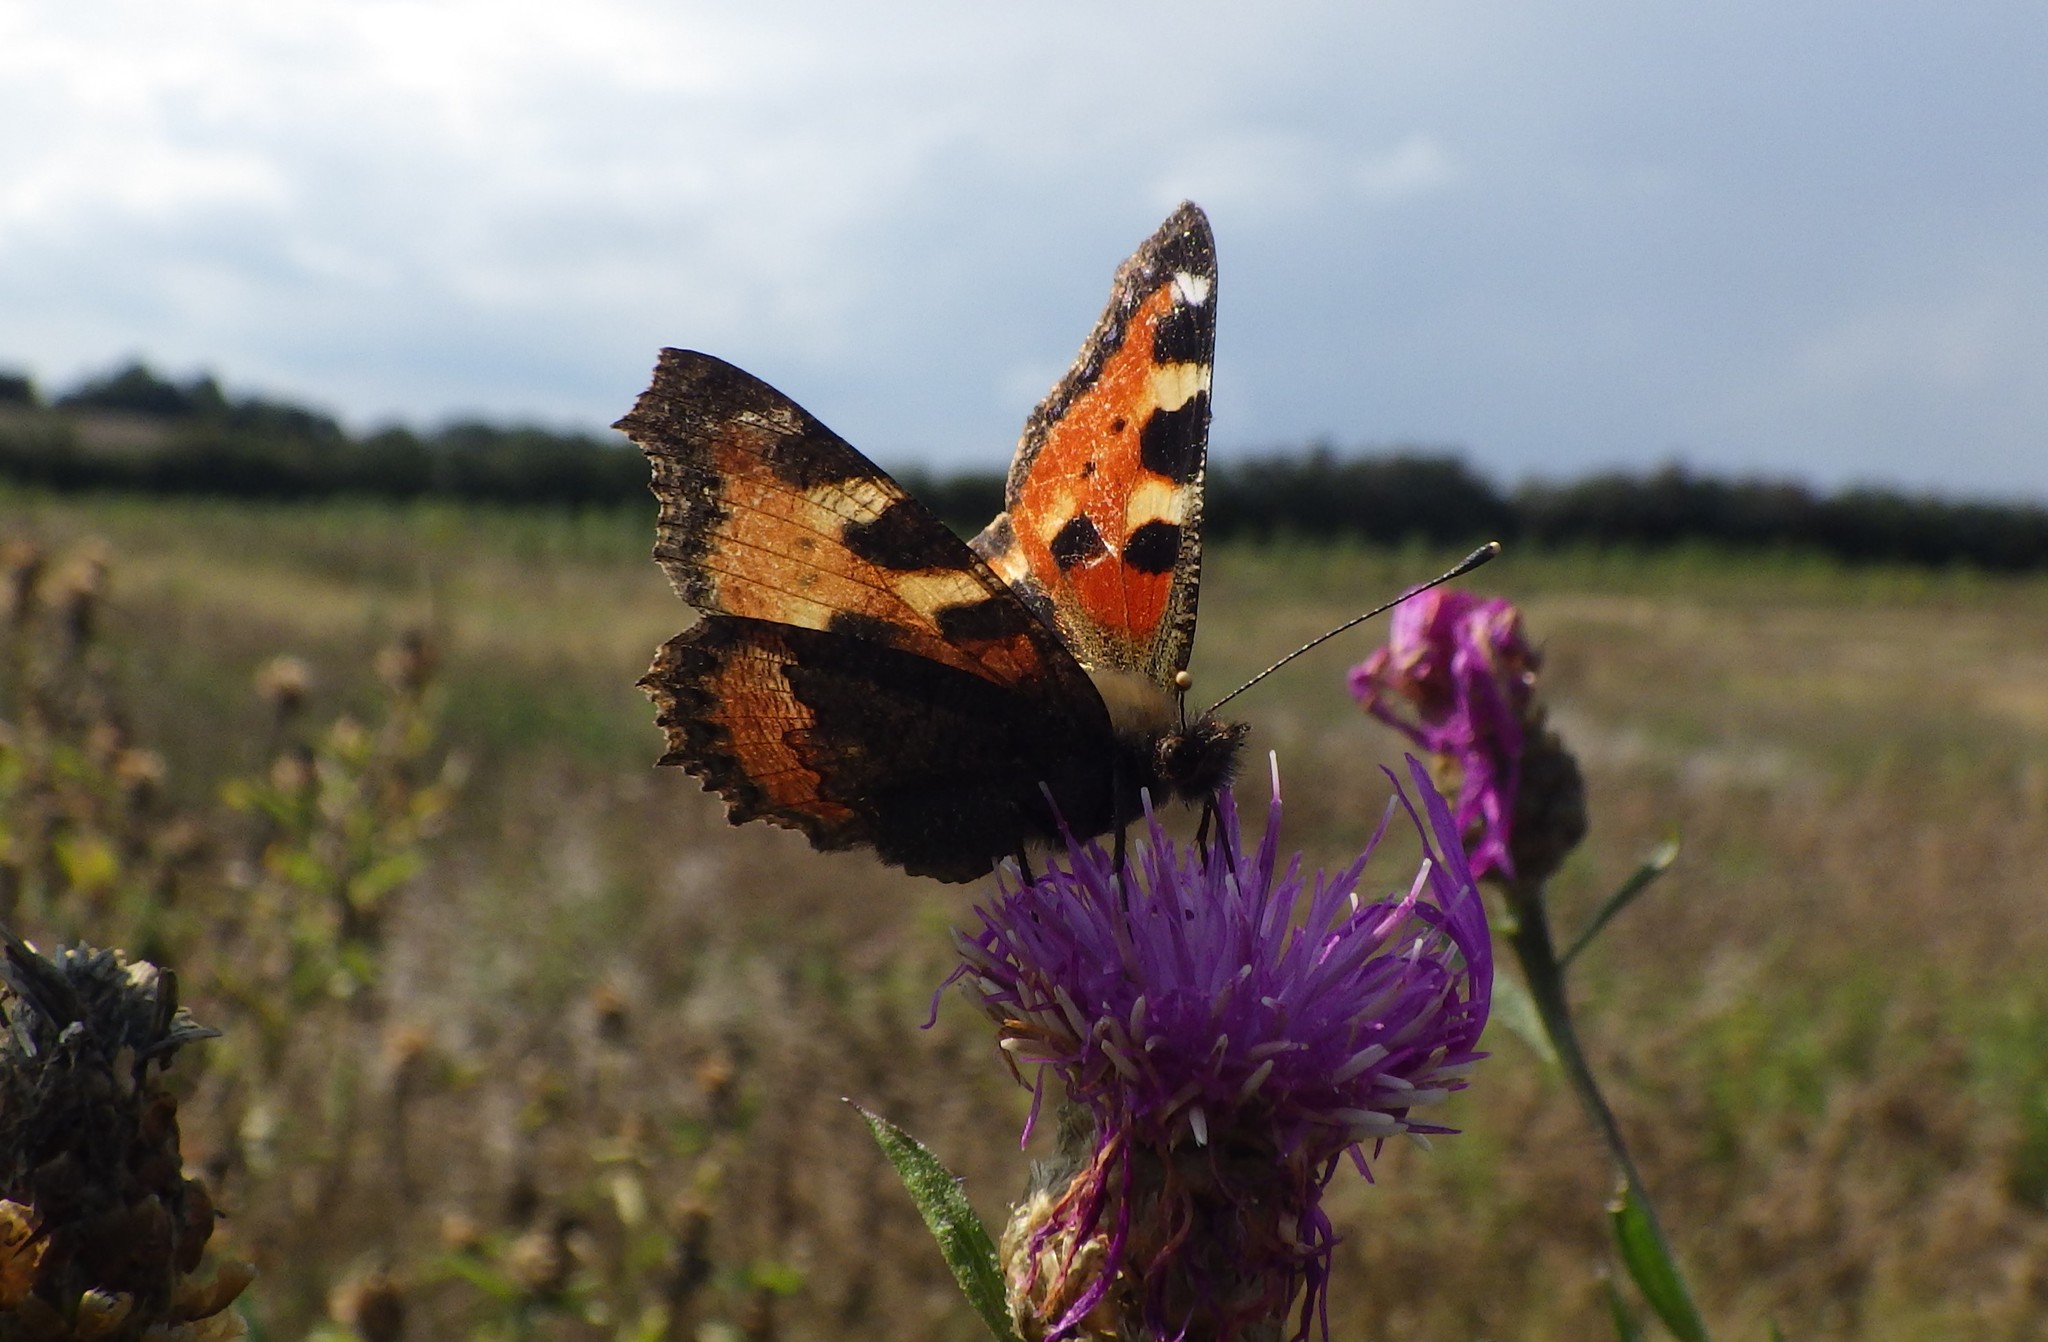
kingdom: Animalia
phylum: Arthropoda
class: Insecta
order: Lepidoptera
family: Nymphalidae
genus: Aglais
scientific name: Aglais urticae
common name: Small tortoiseshell
